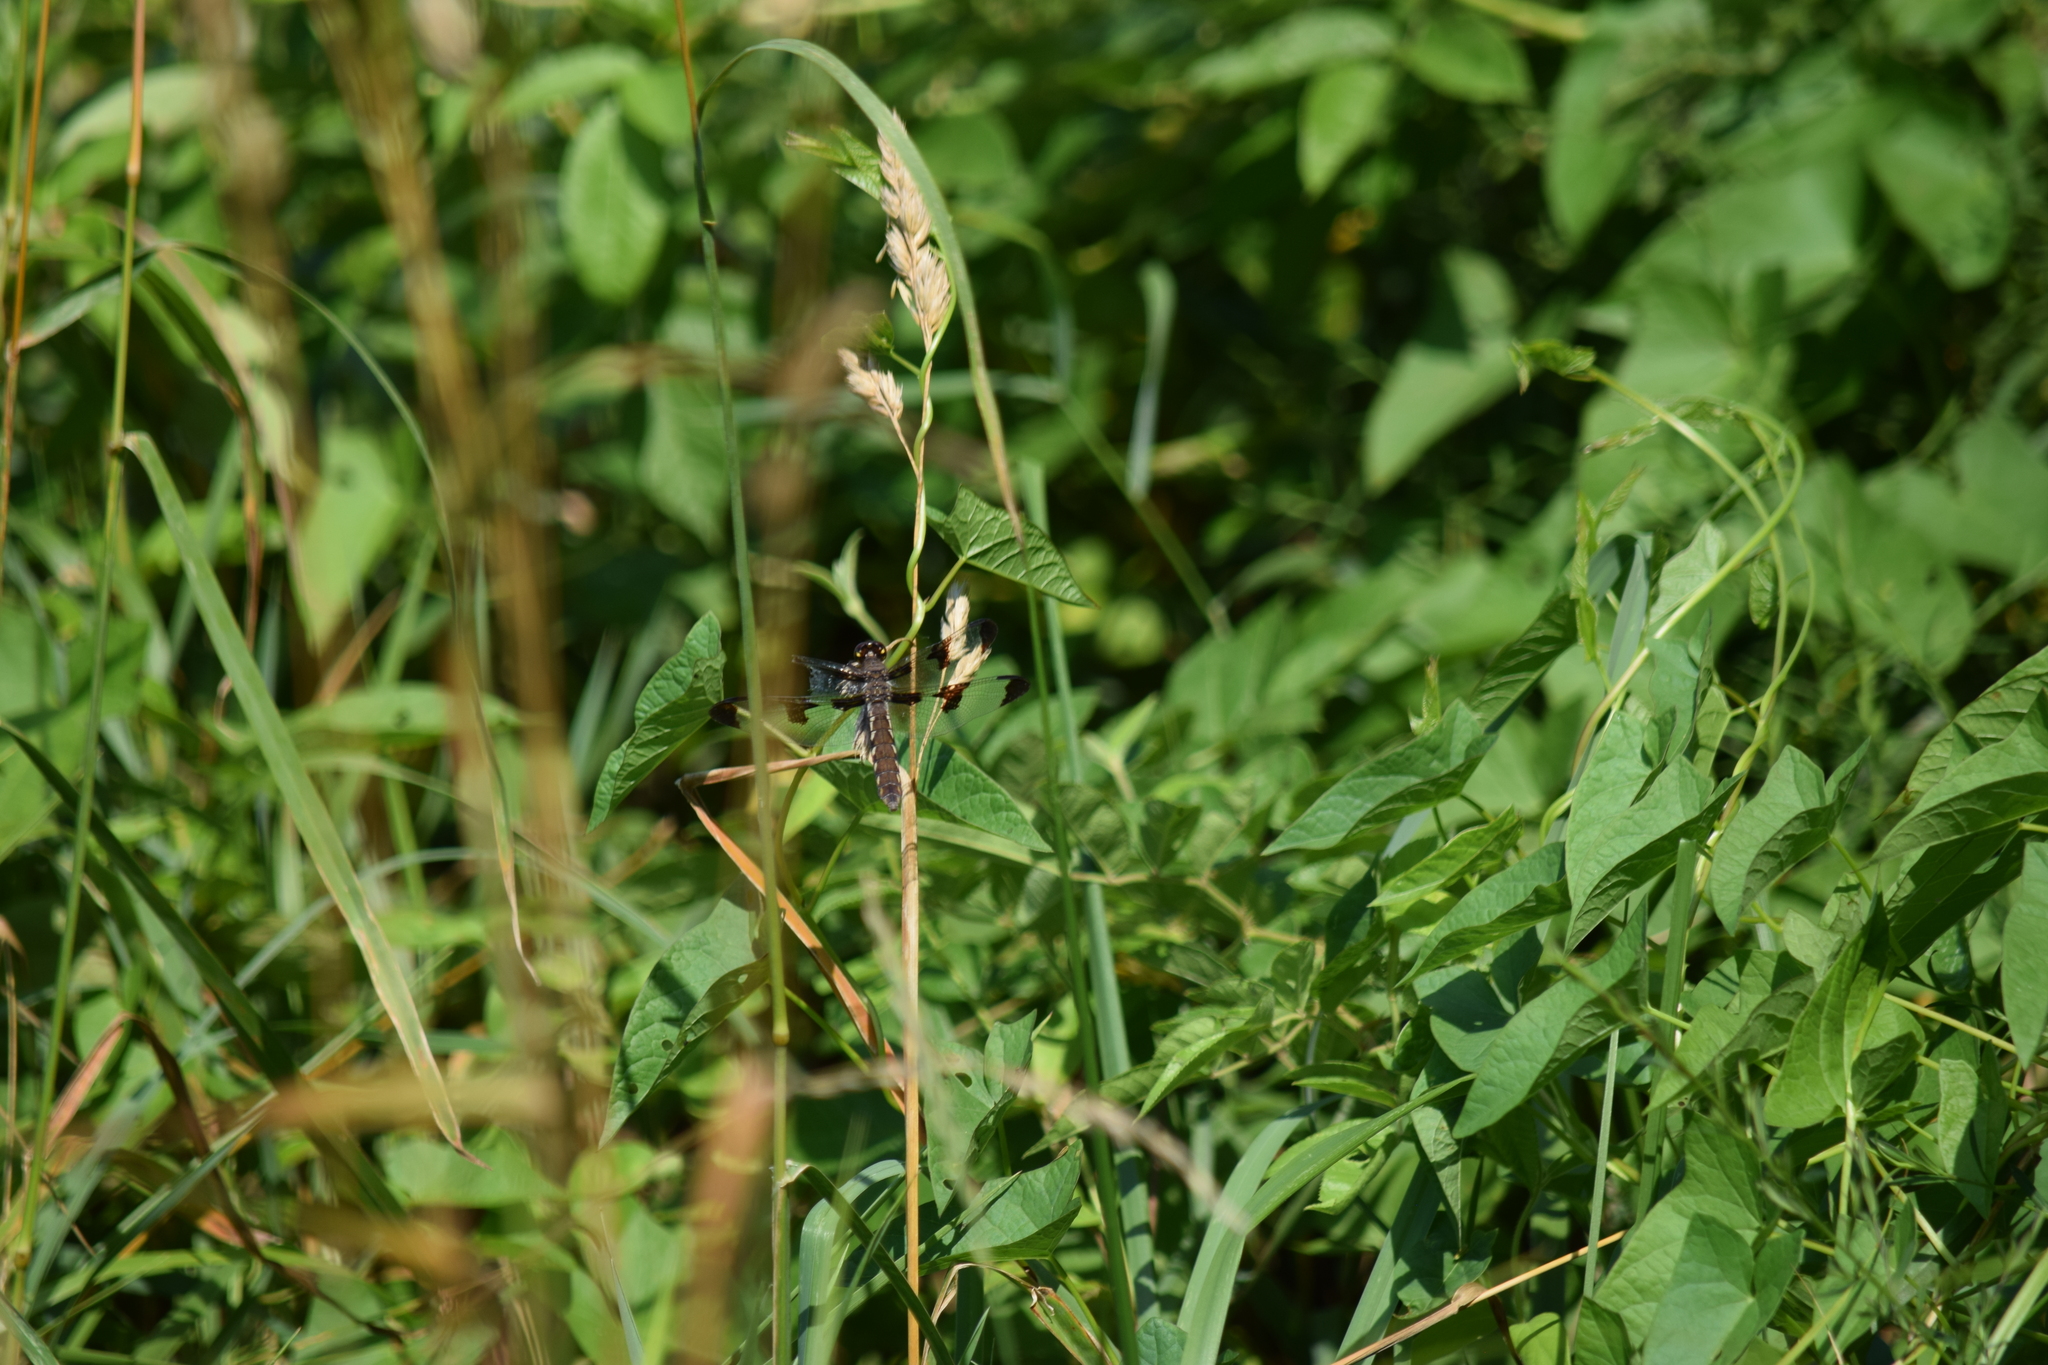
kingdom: Animalia
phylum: Arthropoda
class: Insecta
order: Odonata
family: Libellulidae
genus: Plathemis
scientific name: Plathemis lydia
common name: Common whitetail
